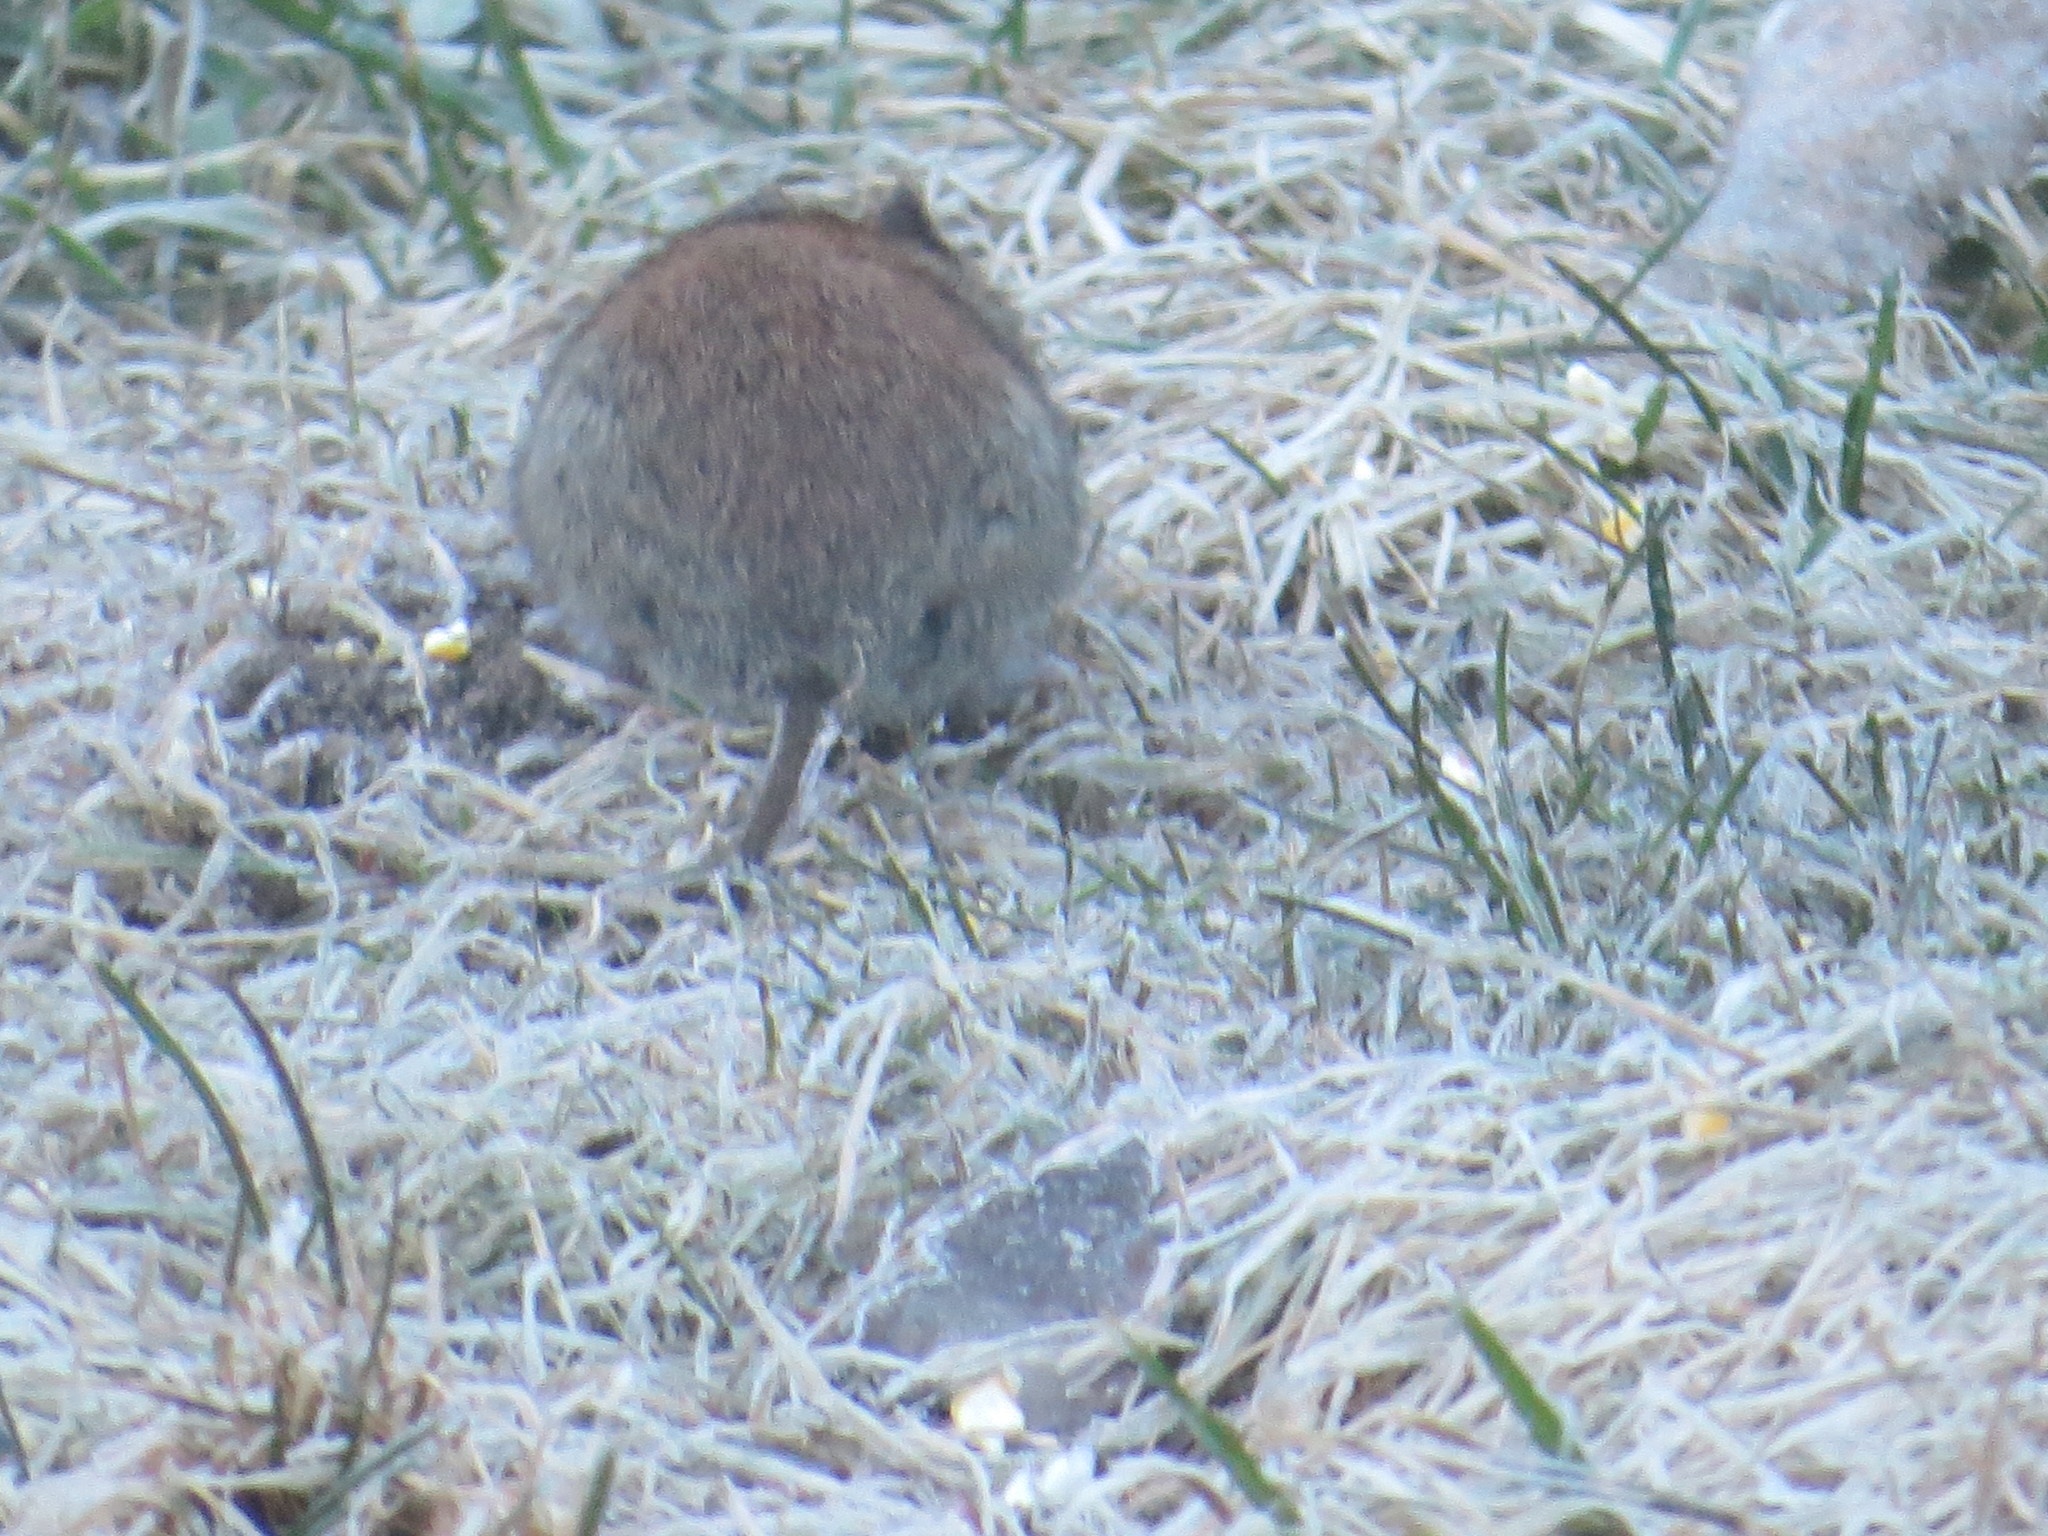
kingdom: Animalia
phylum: Chordata
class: Mammalia
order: Rodentia
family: Cricetidae
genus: Myodes
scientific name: Myodes gapperi
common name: Southern red-backed vole
